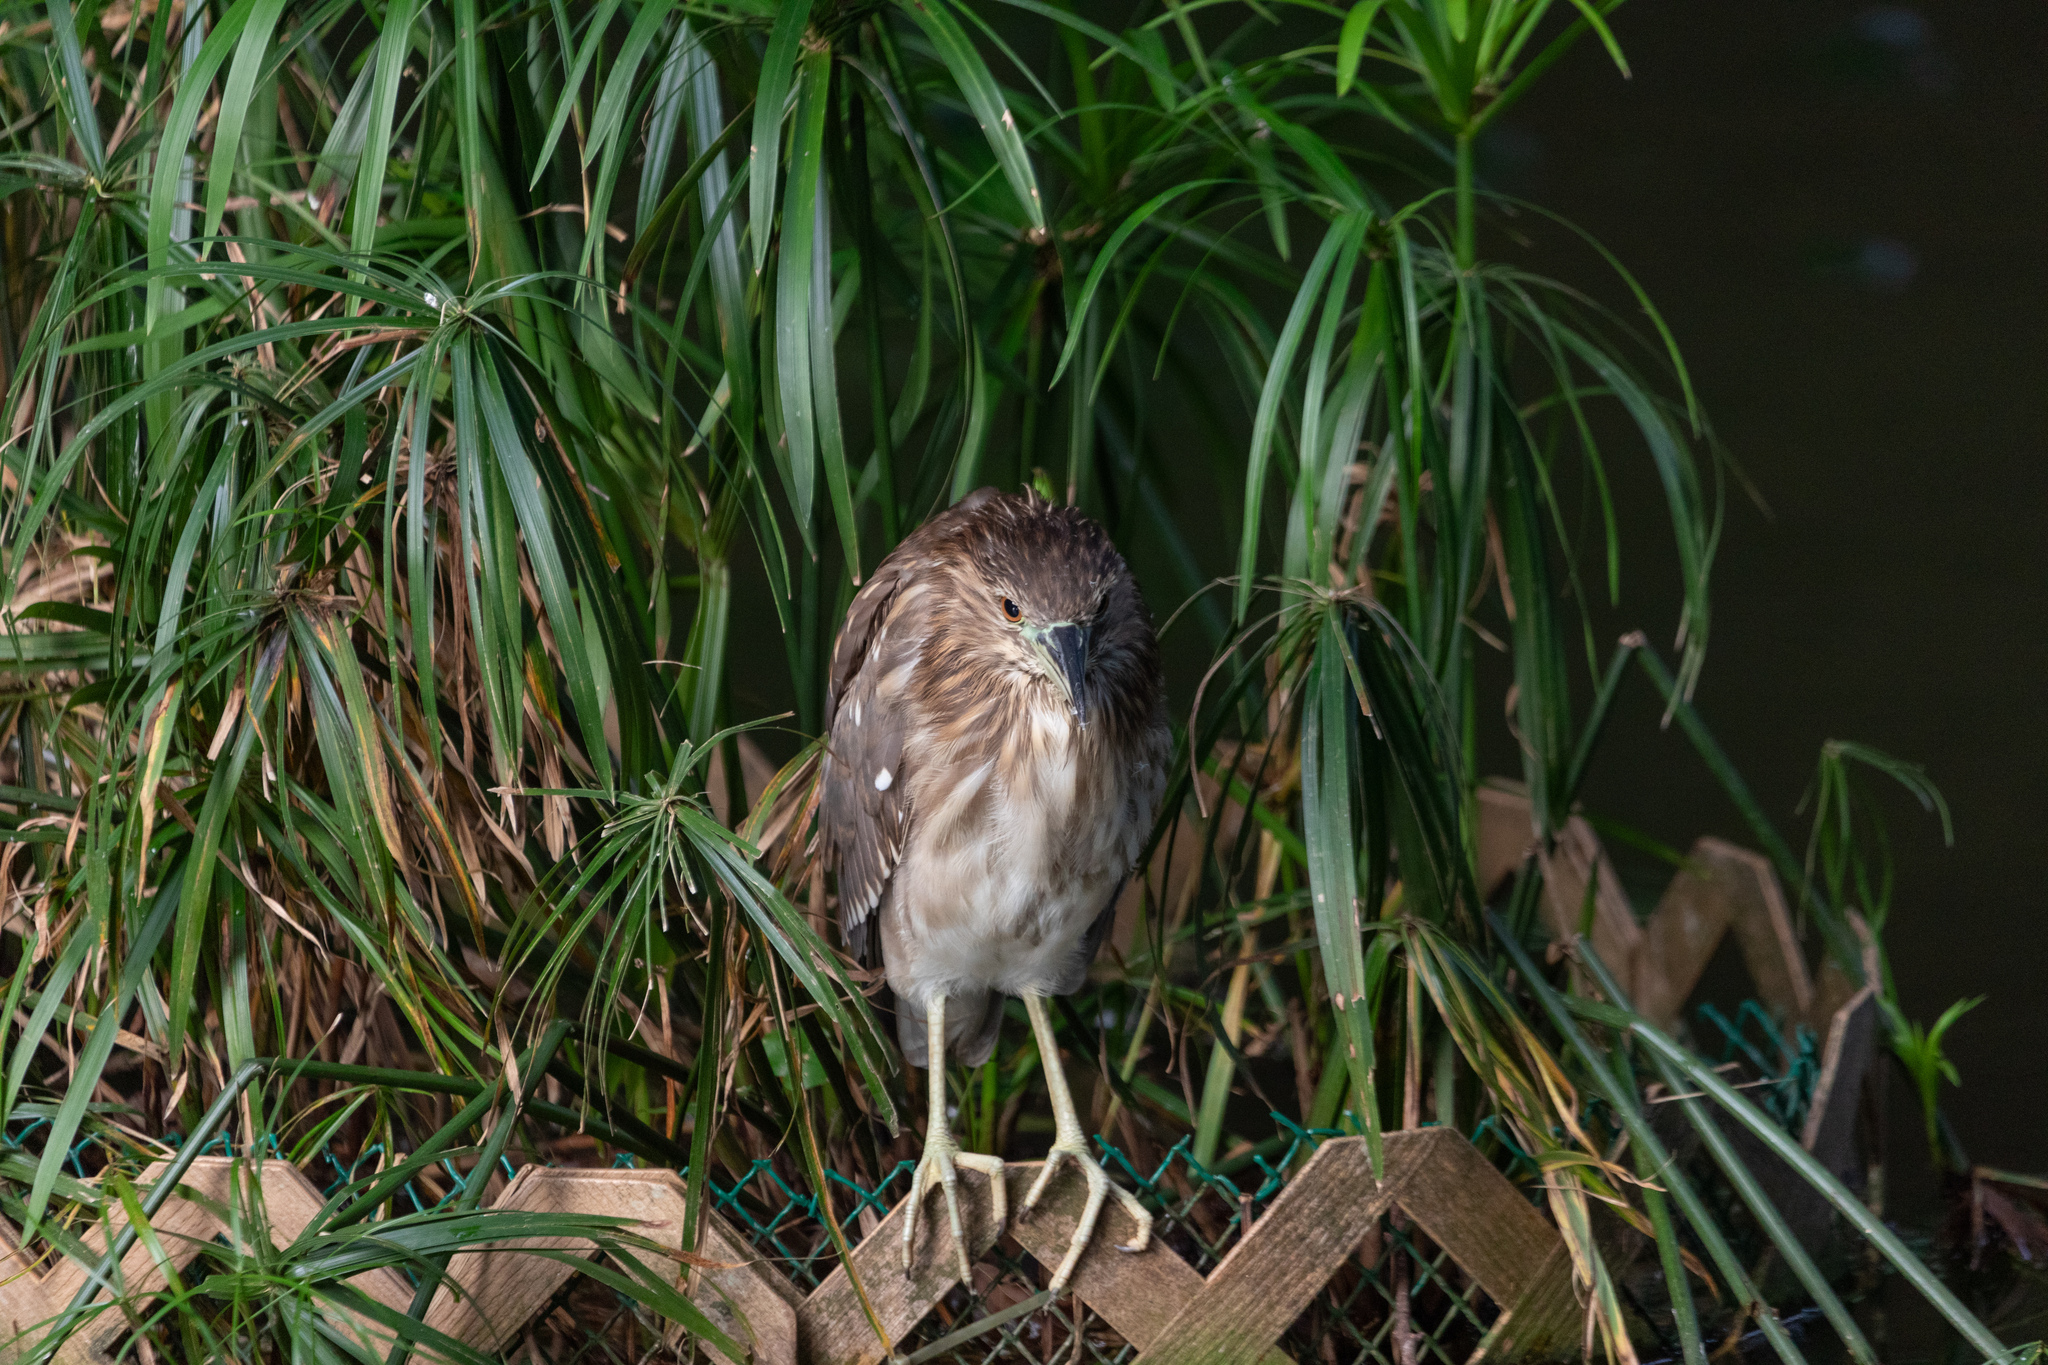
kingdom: Animalia
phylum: Chordata
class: Aves
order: Pelecaniformes
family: Ardeidae
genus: Nycticorax
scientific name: Nycticorax nycticorax
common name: Black-crowned night heron
